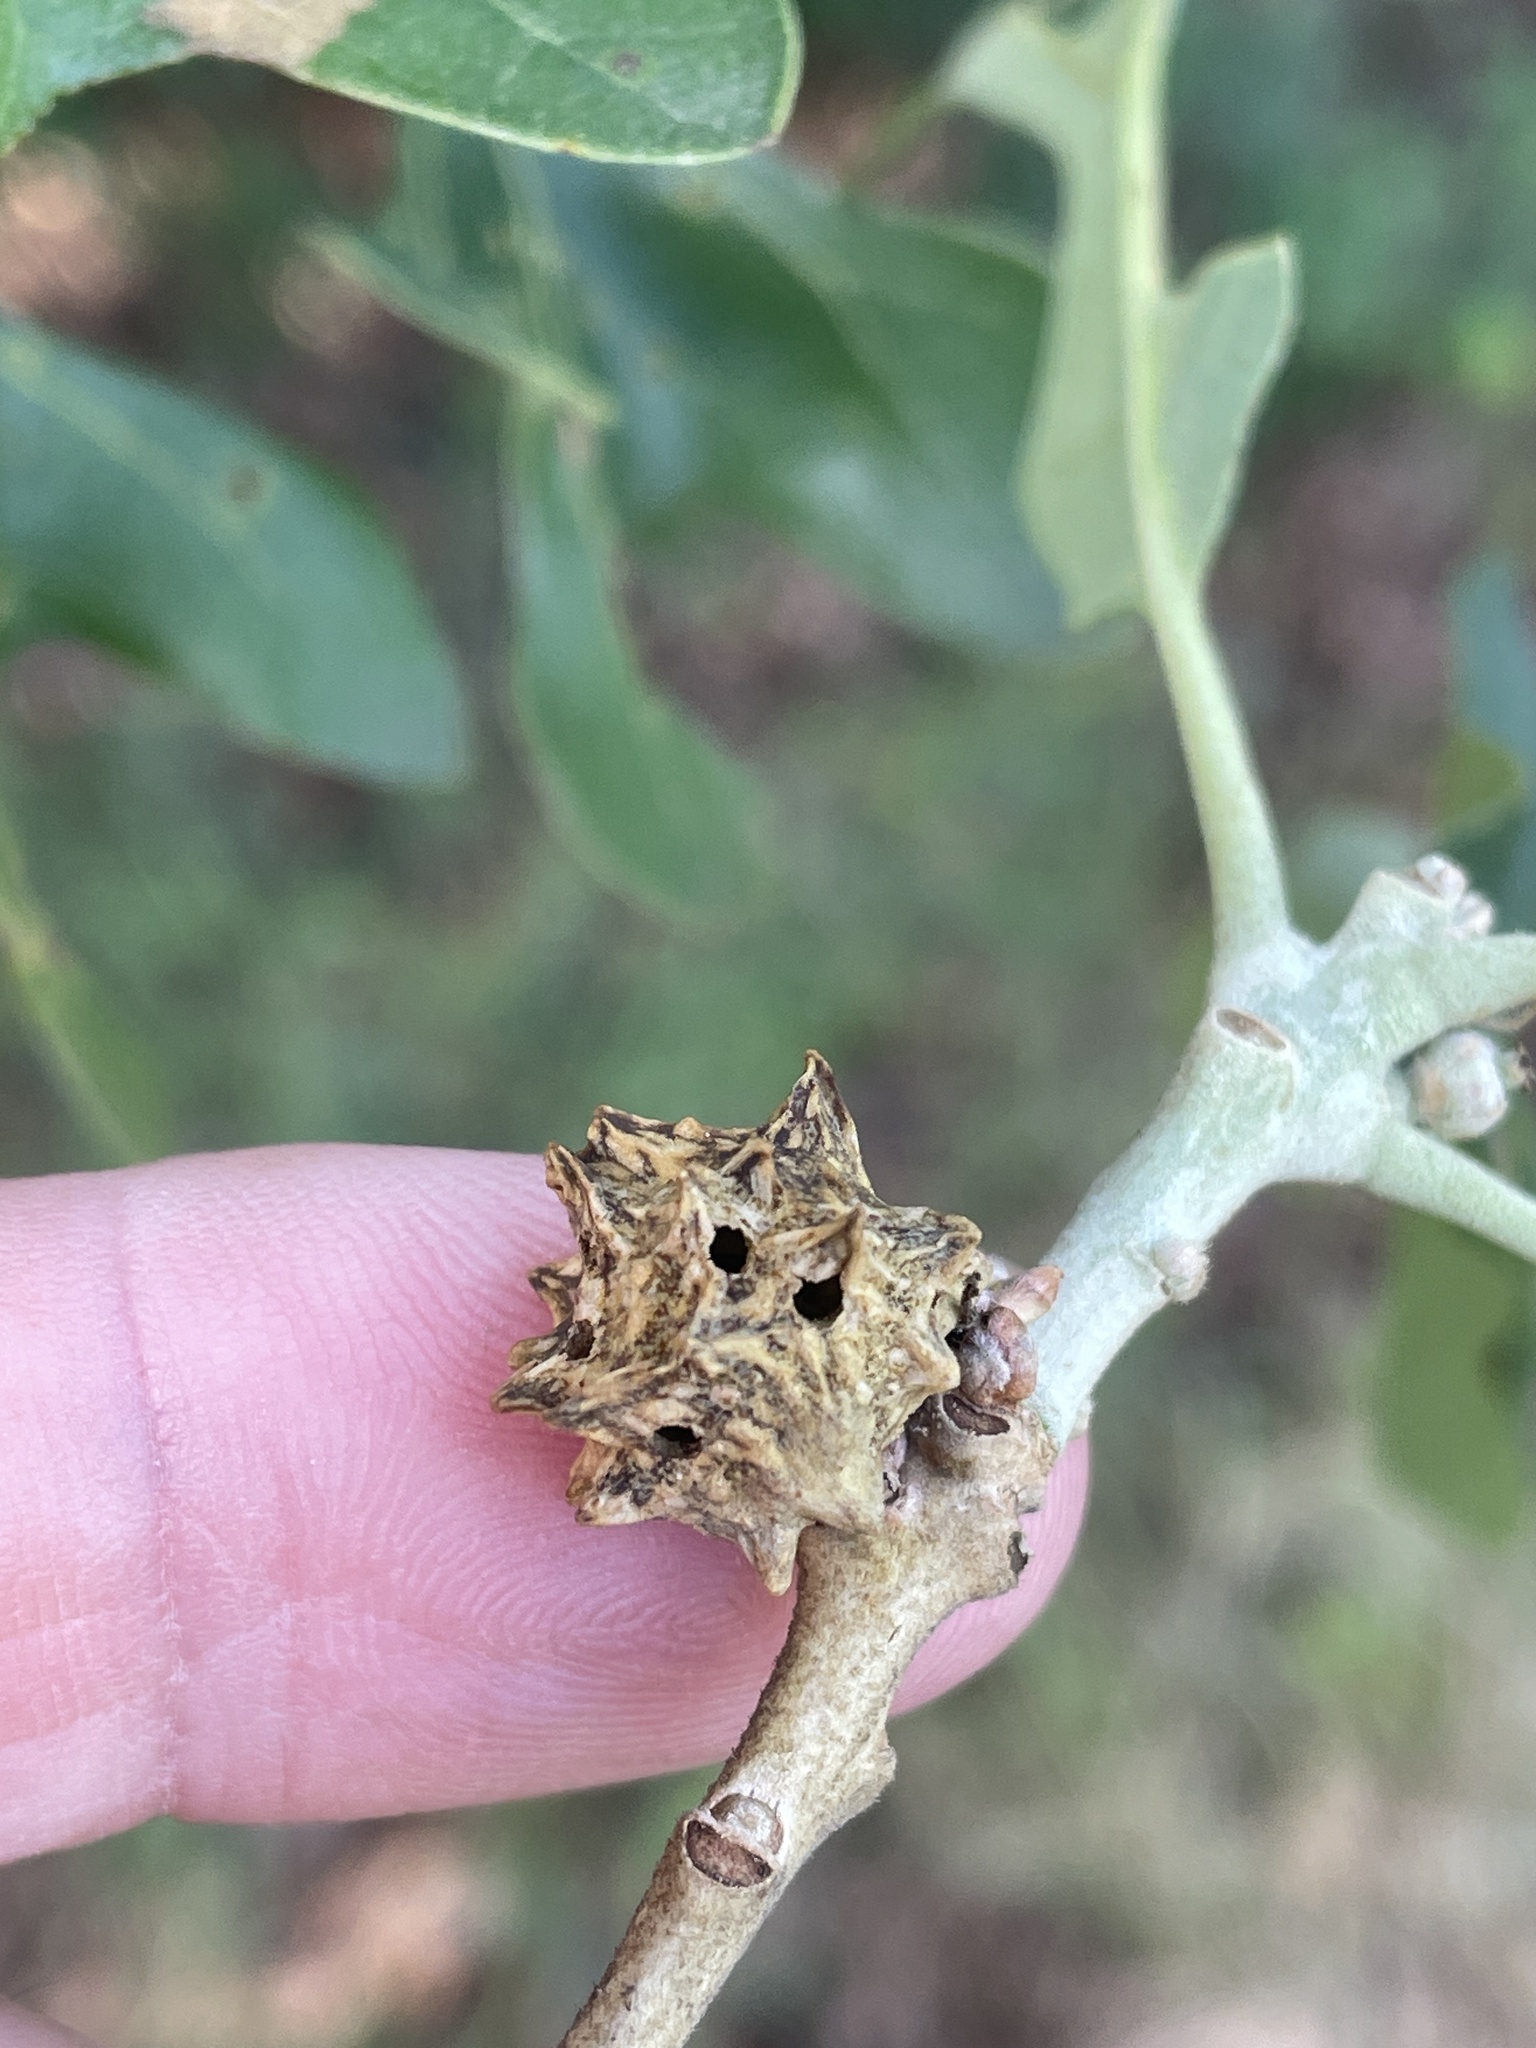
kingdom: Animalia
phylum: Arthropoda
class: Insecta
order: Hymenoptera
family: Cynipidae
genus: Andricus
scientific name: Andricus
